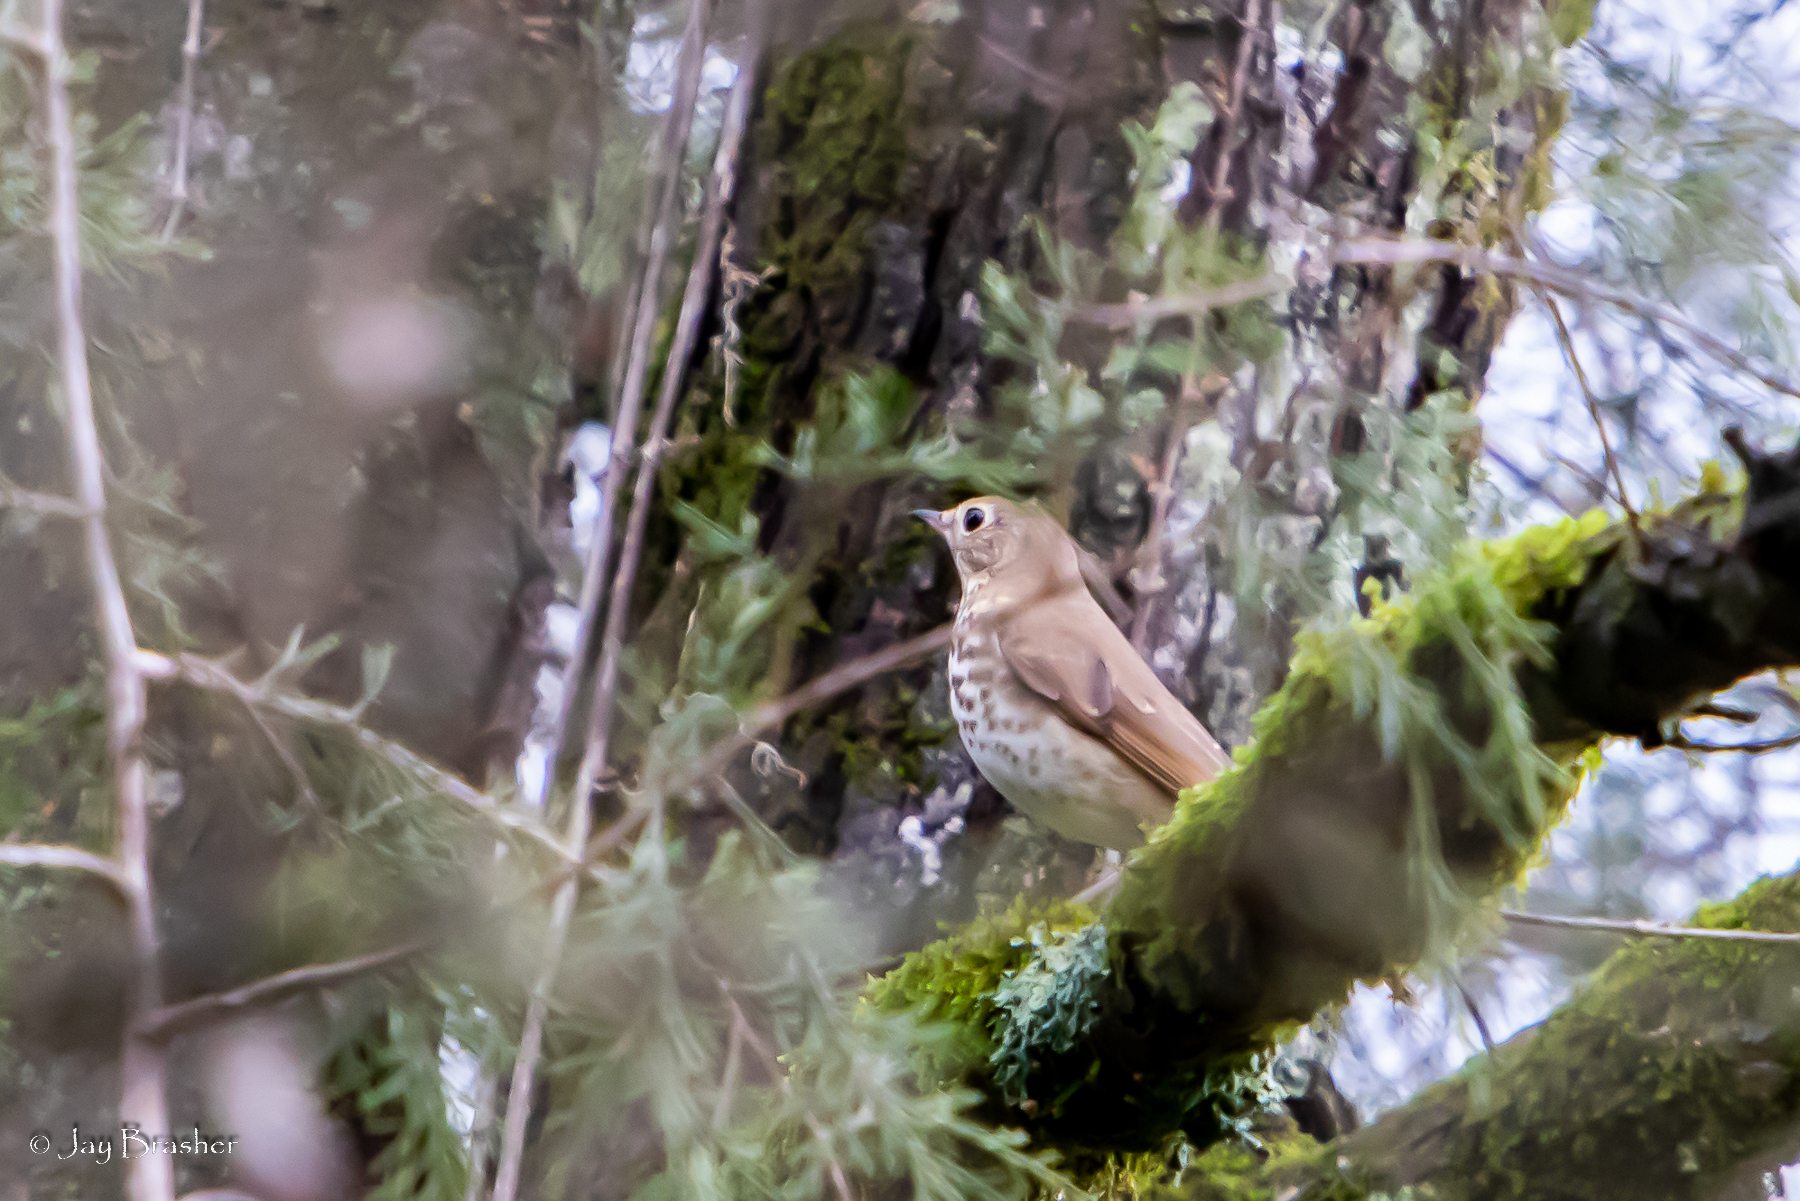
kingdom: Animalia
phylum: Chordata
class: Aves
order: Passeriformes
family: Turdidae
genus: Catharus
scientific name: Catharus guttatus
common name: Hermit thrush
